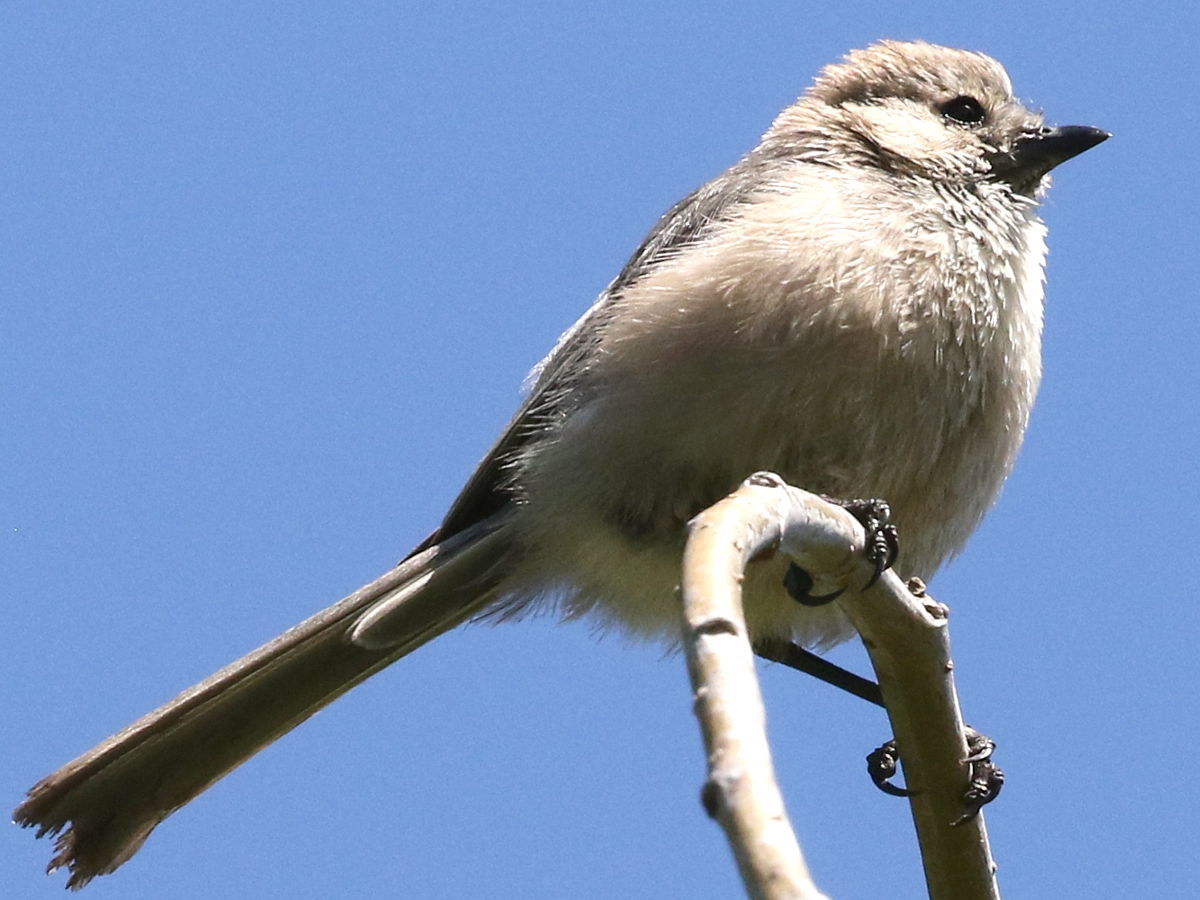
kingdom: Animalia
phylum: Chordata
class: Aves
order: Passeriformes
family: Aegithalidae
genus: Psaltriparus
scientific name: Psaltriparus minimus
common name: American bushtit
